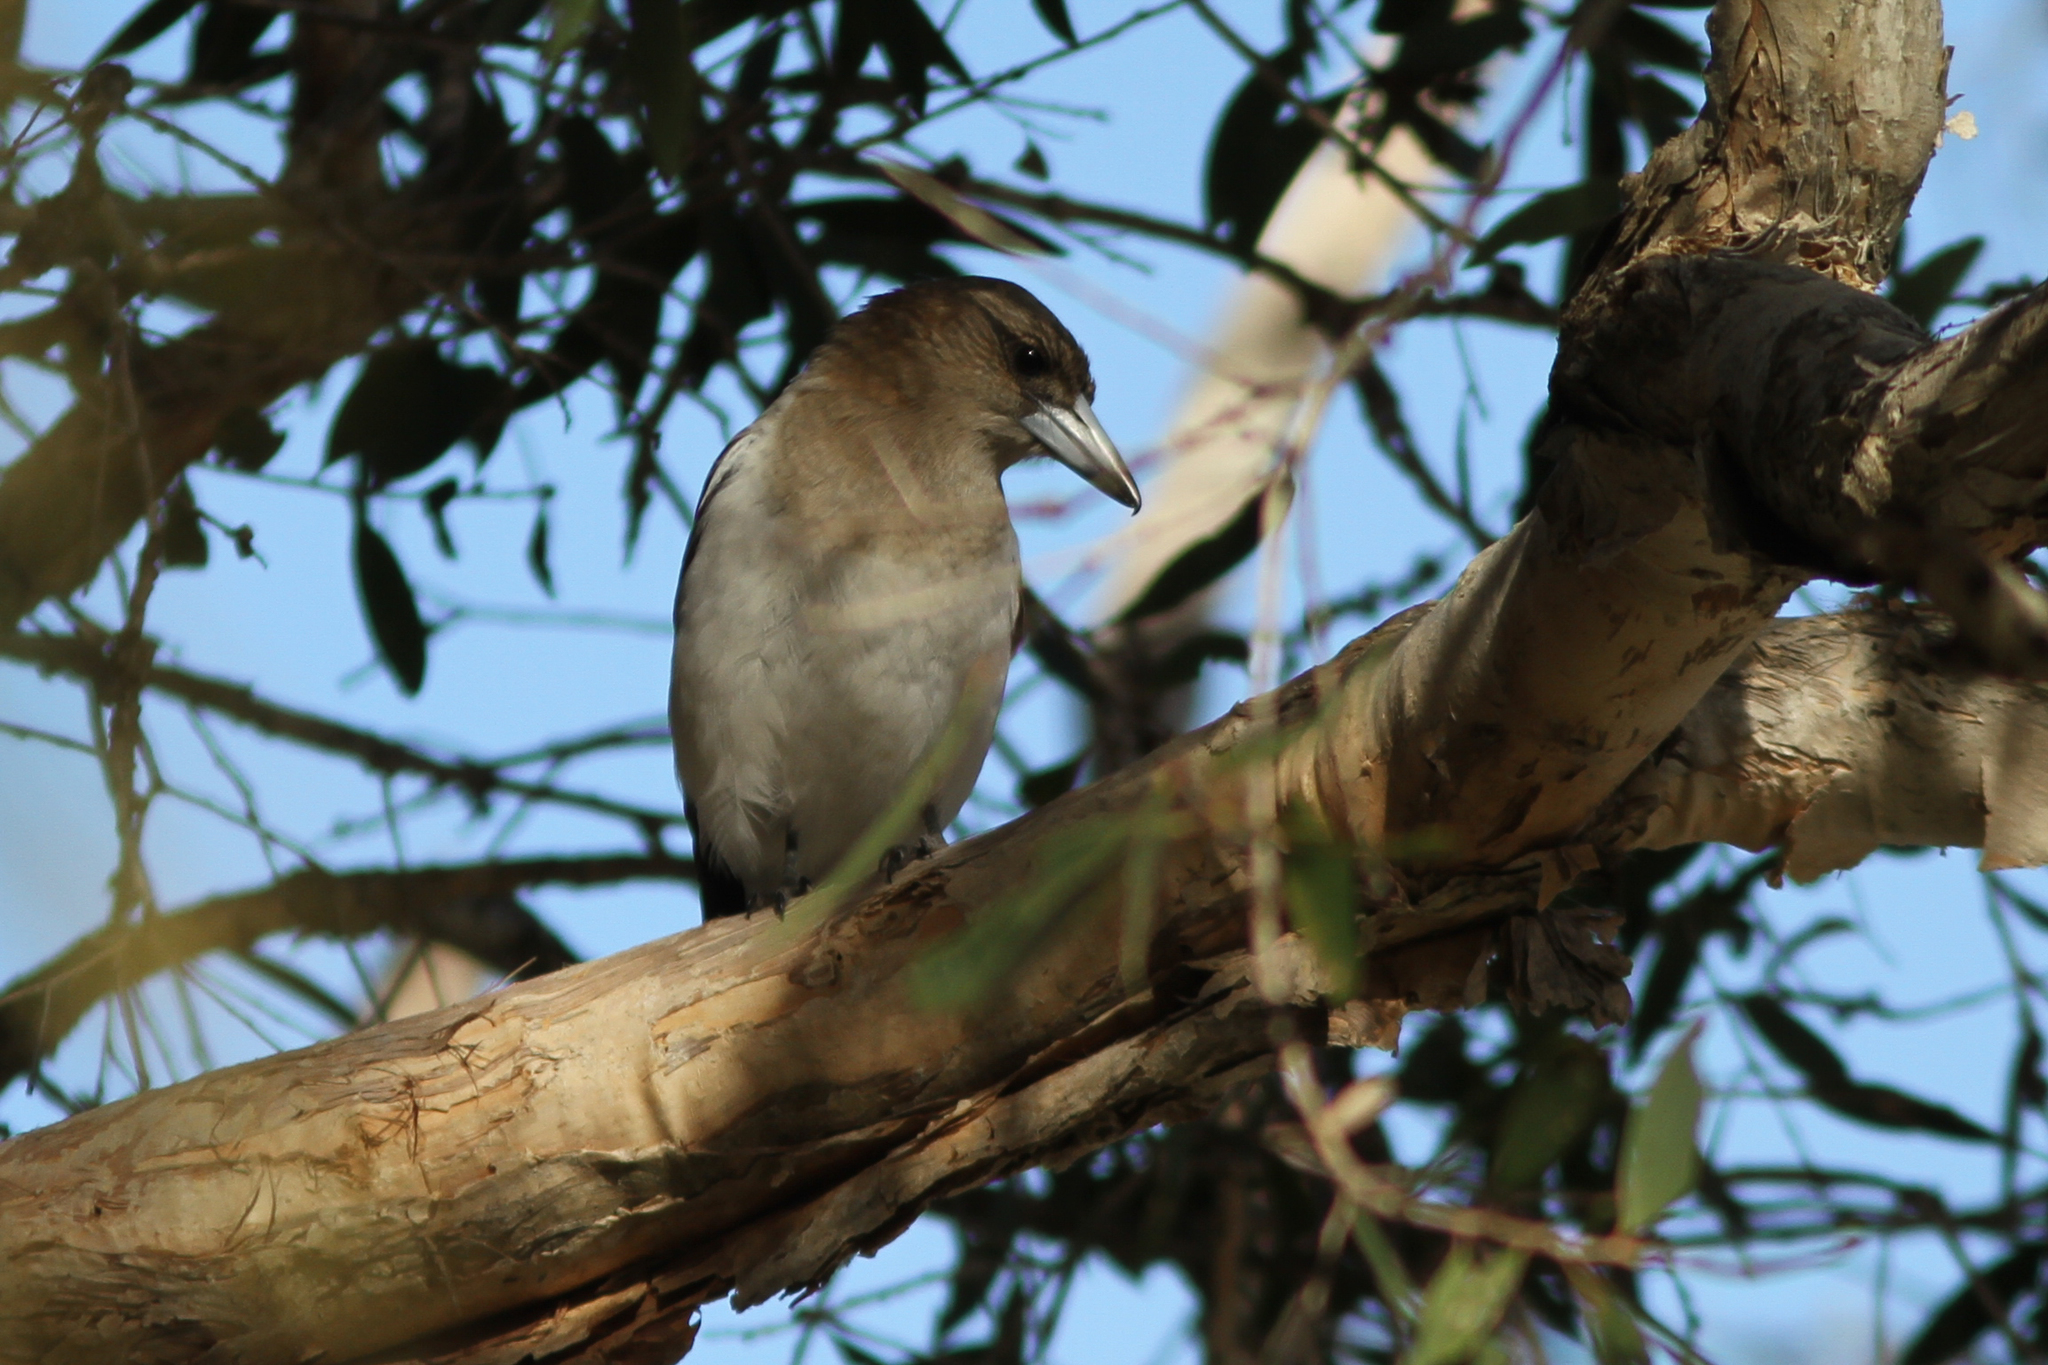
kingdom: Animalia
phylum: Chordata
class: Aves
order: Passeriformes
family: Cracticidae
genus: Cracticus
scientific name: Cracticus nigrogularis
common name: Pied butcherbird
